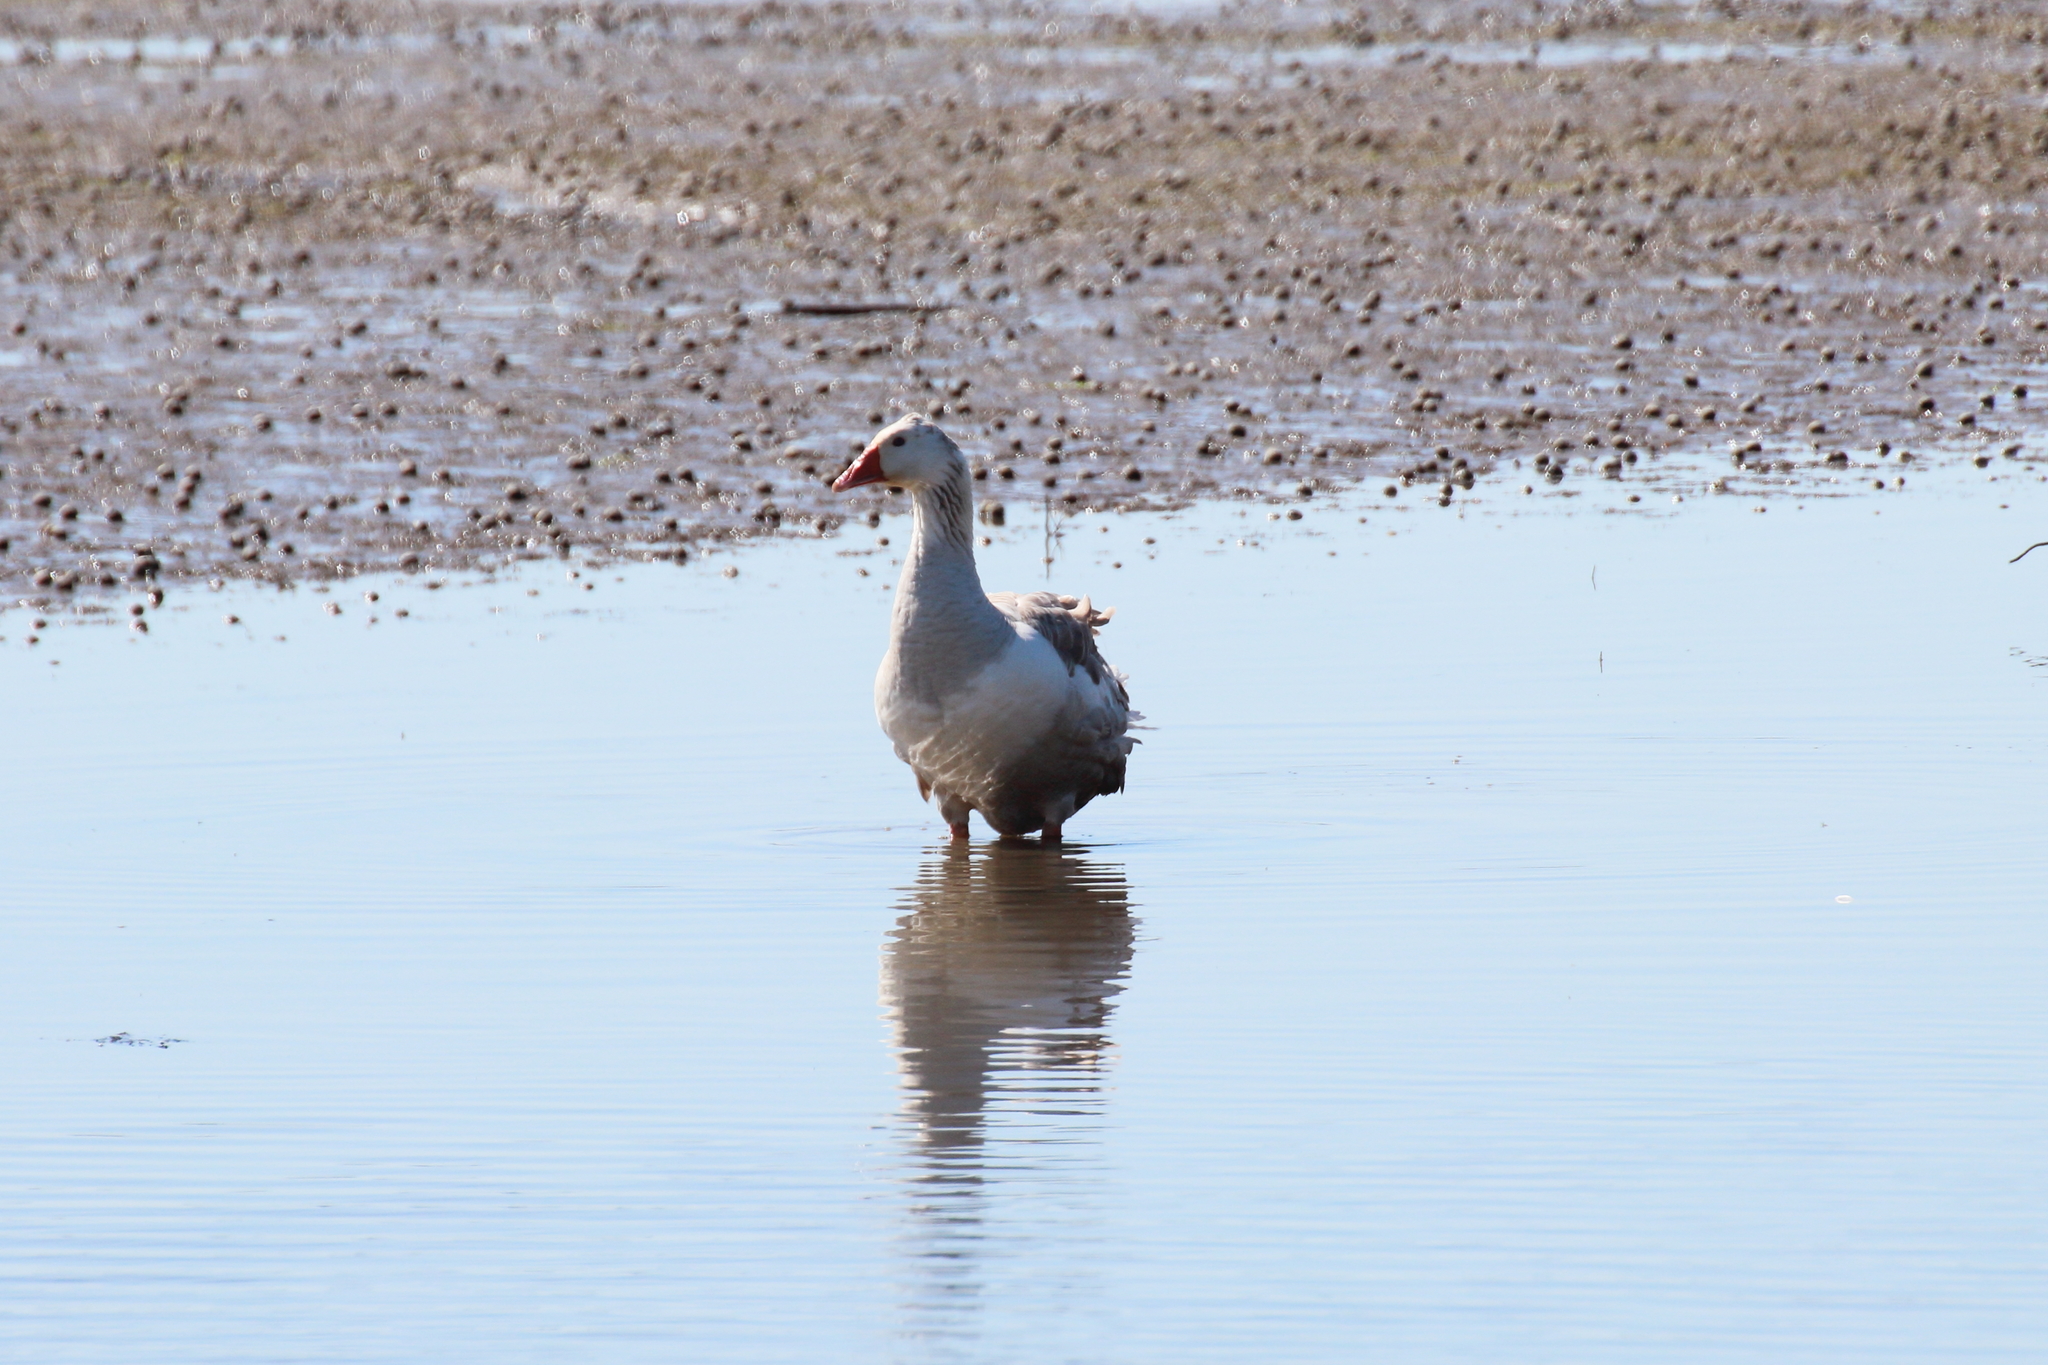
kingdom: Animalia
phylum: Chordata
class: Aves
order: Anseriformes
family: Anatidae
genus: Anser
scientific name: Anser anser
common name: Greylag goose
